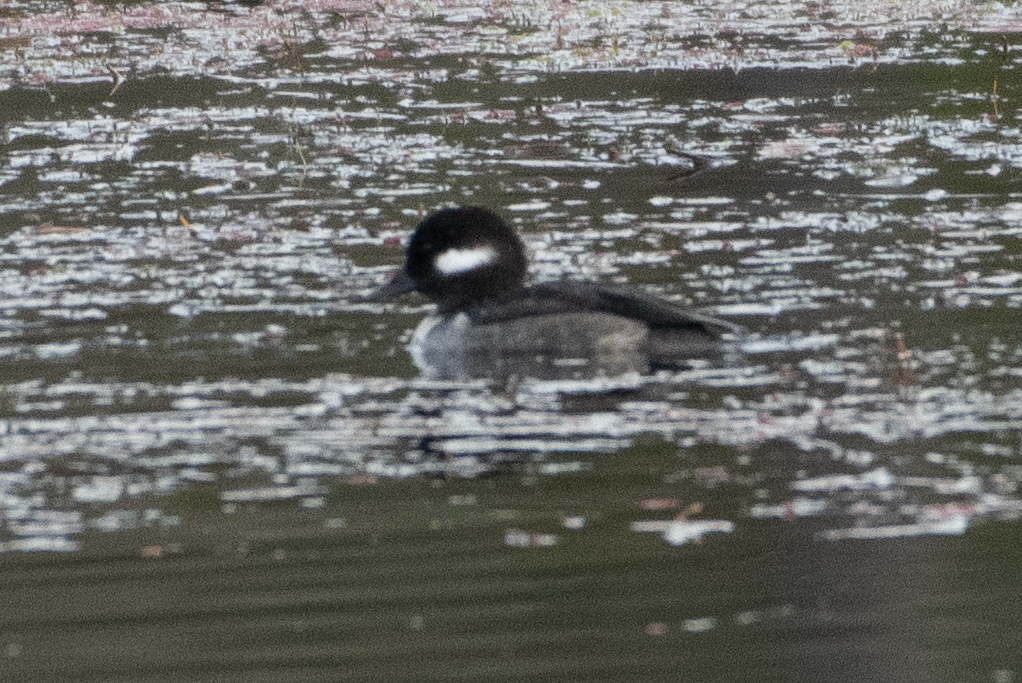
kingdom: Animalia
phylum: Chordata
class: Aves
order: Anseriformes
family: Anatidae
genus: Bucephala
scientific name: Bucephala albeola
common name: Bufflehead
